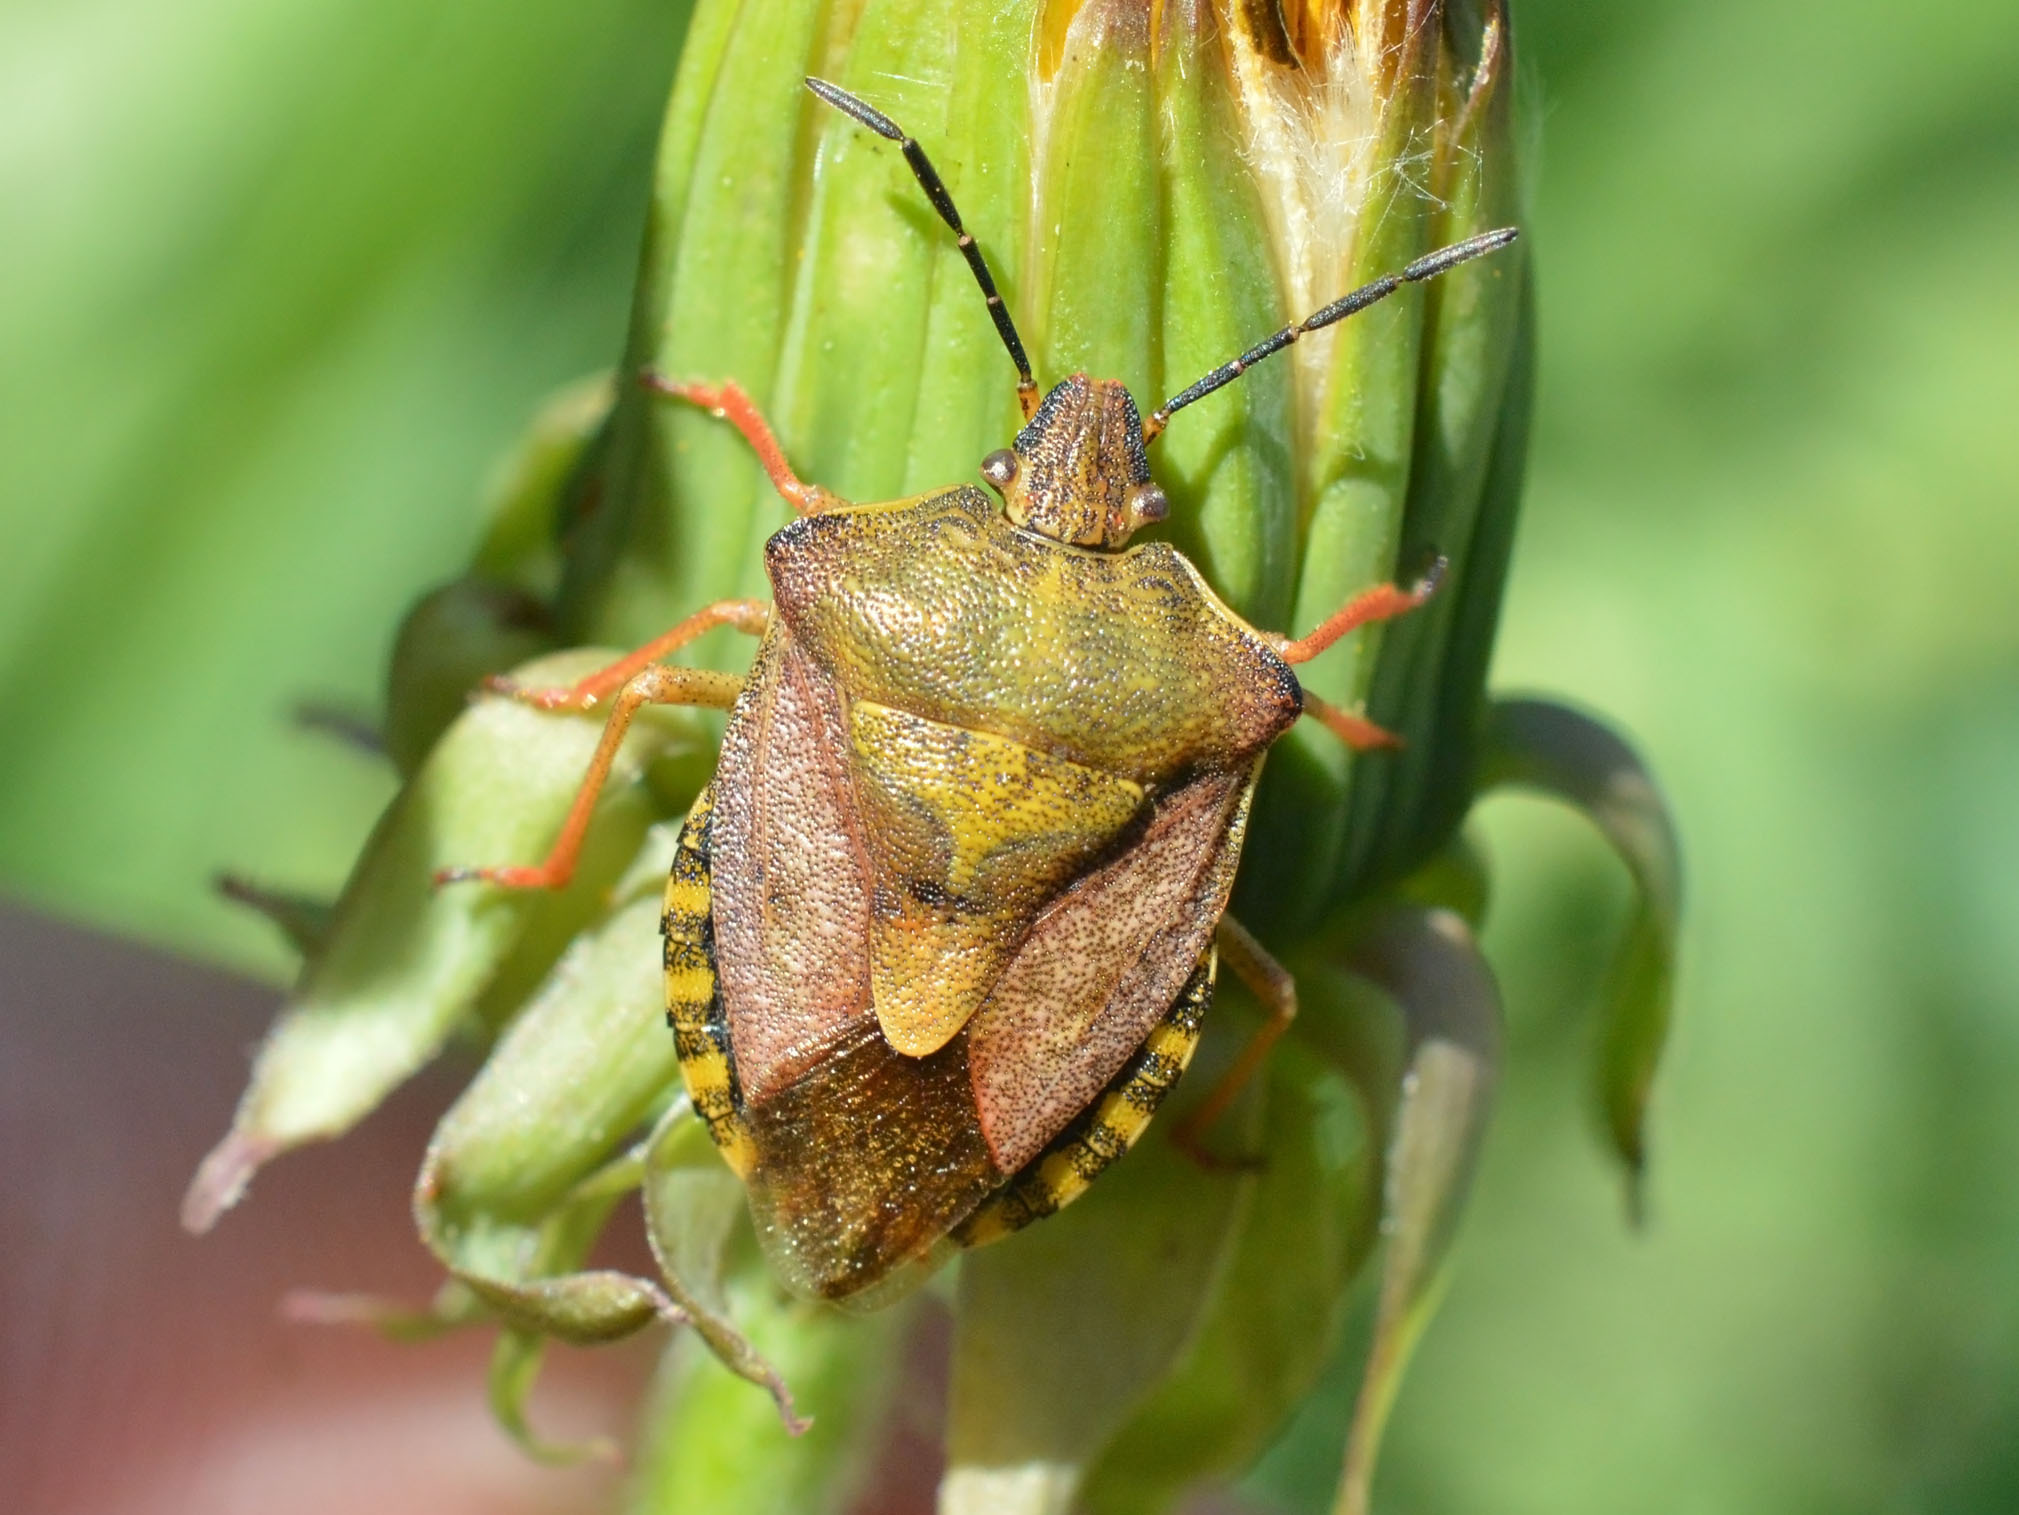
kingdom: Animalia
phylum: Arthropoda
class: Insecta
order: Hemiptera
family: Pentatomidae
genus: Carpocoris
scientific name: Carpocoris purpureipennis
